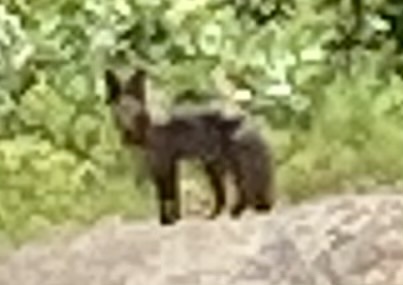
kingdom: Animalia
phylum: Chordata
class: Mammalia
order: Carnivora
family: Canidae
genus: Vulpes
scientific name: Vulpes vulpes
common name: Red fox
